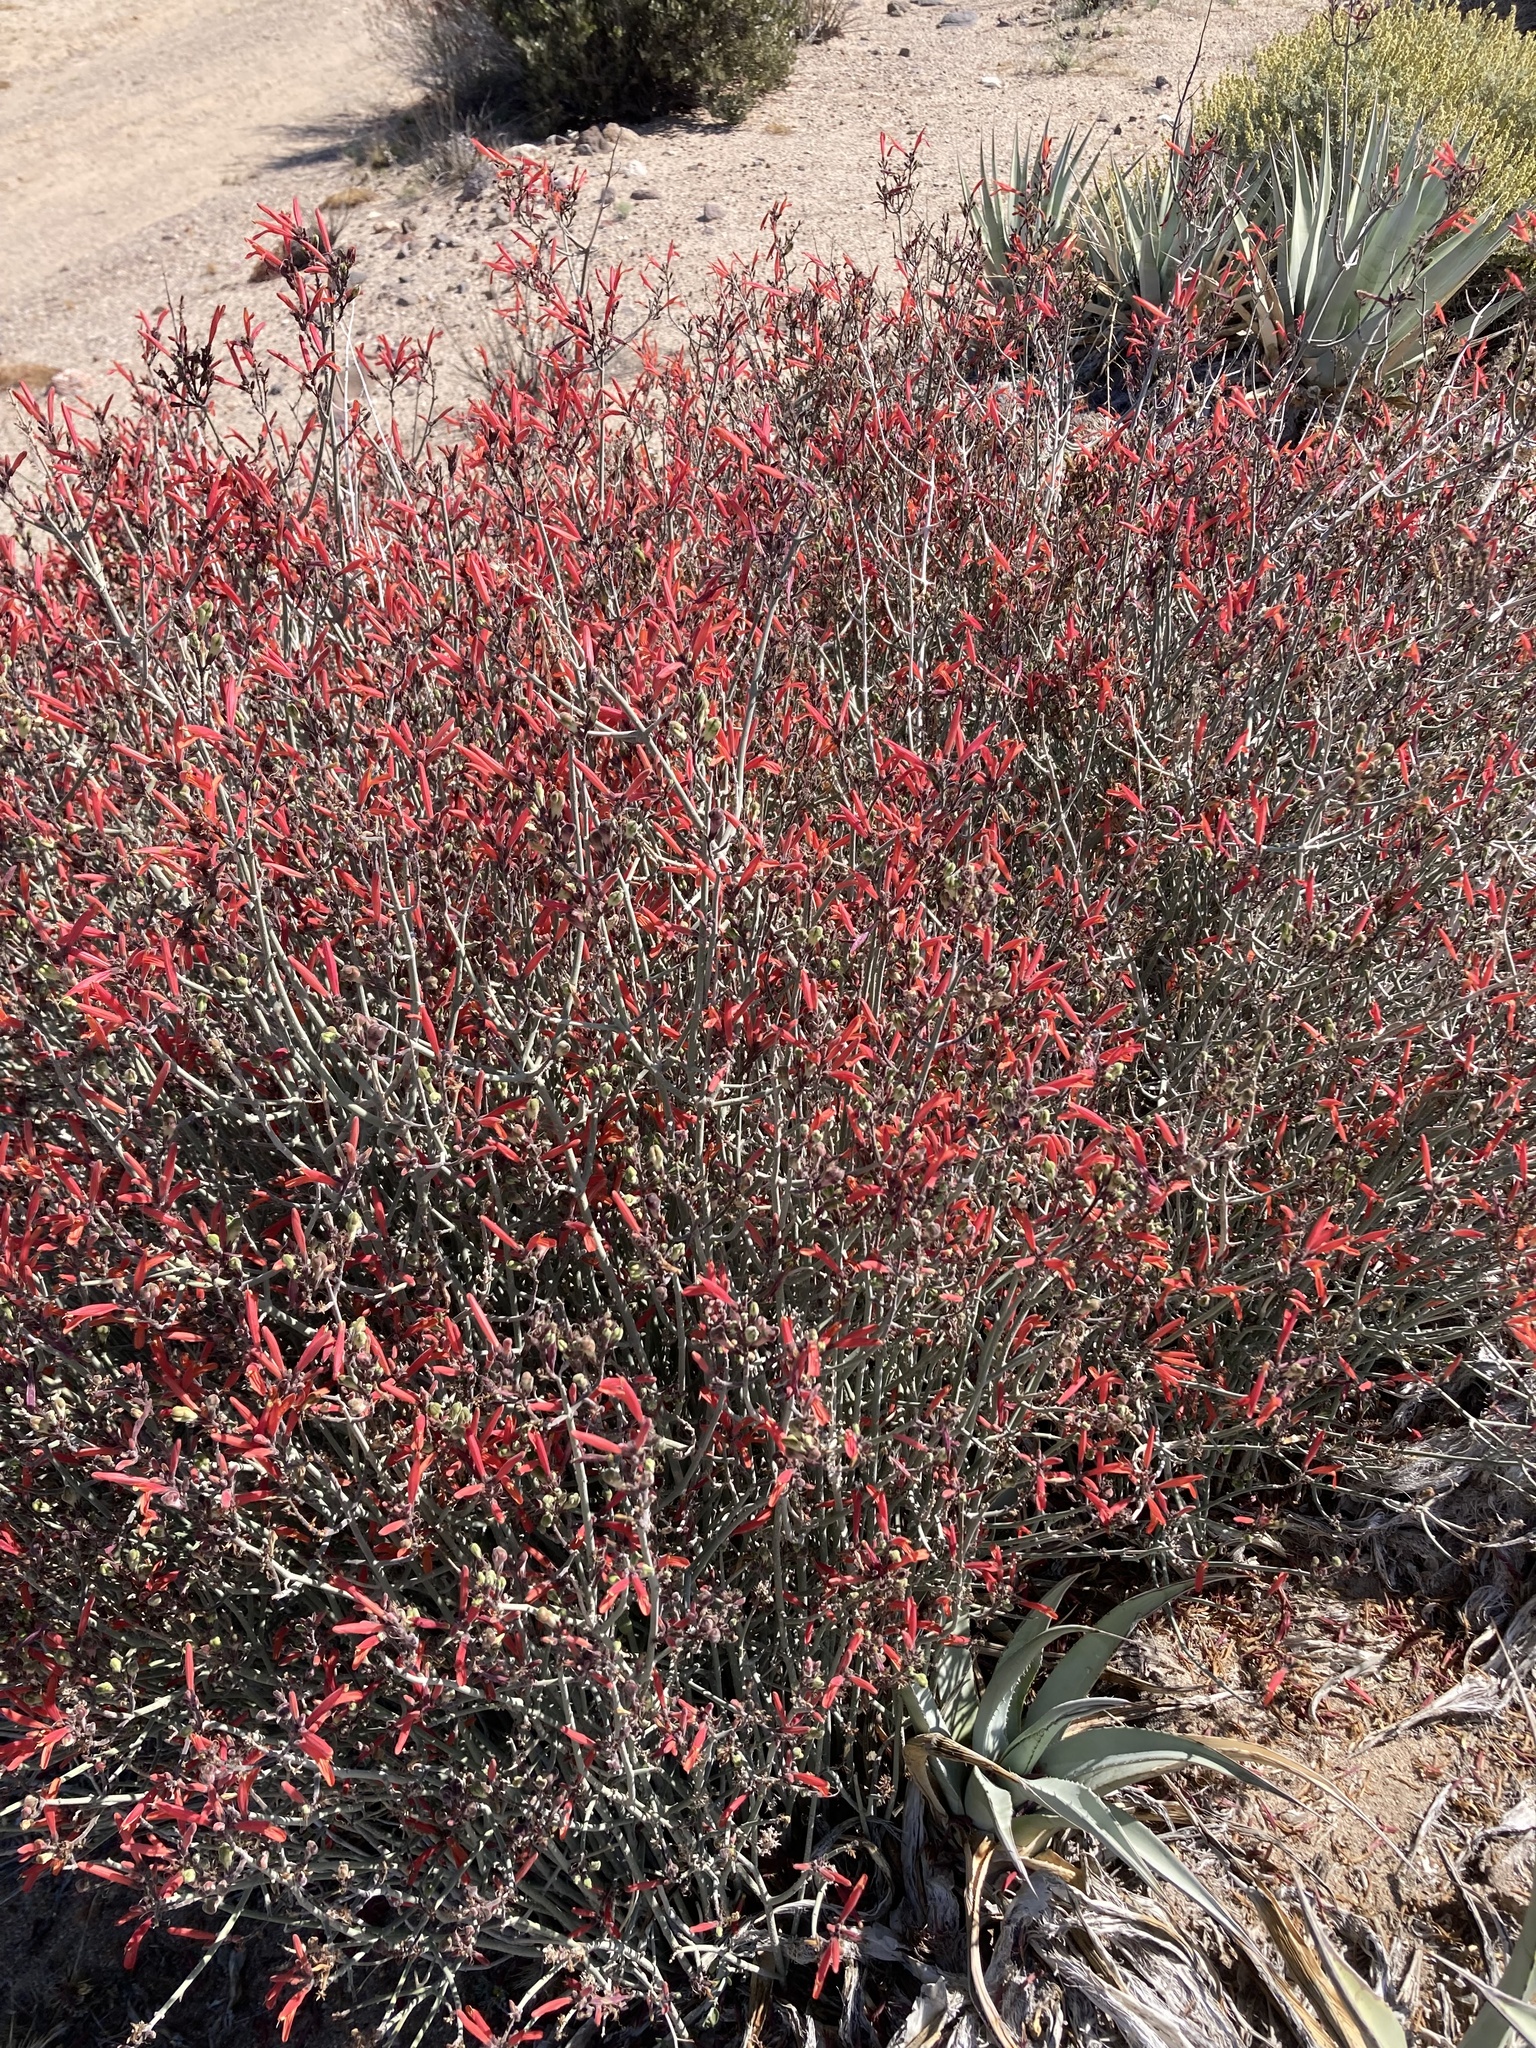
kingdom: Plantae
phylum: Tracheophyta
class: Magnoliopsida
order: Lamiales
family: Acanthaceae
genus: Justicia
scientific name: Justicia californica
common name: Chuparosa-honeysuckle
